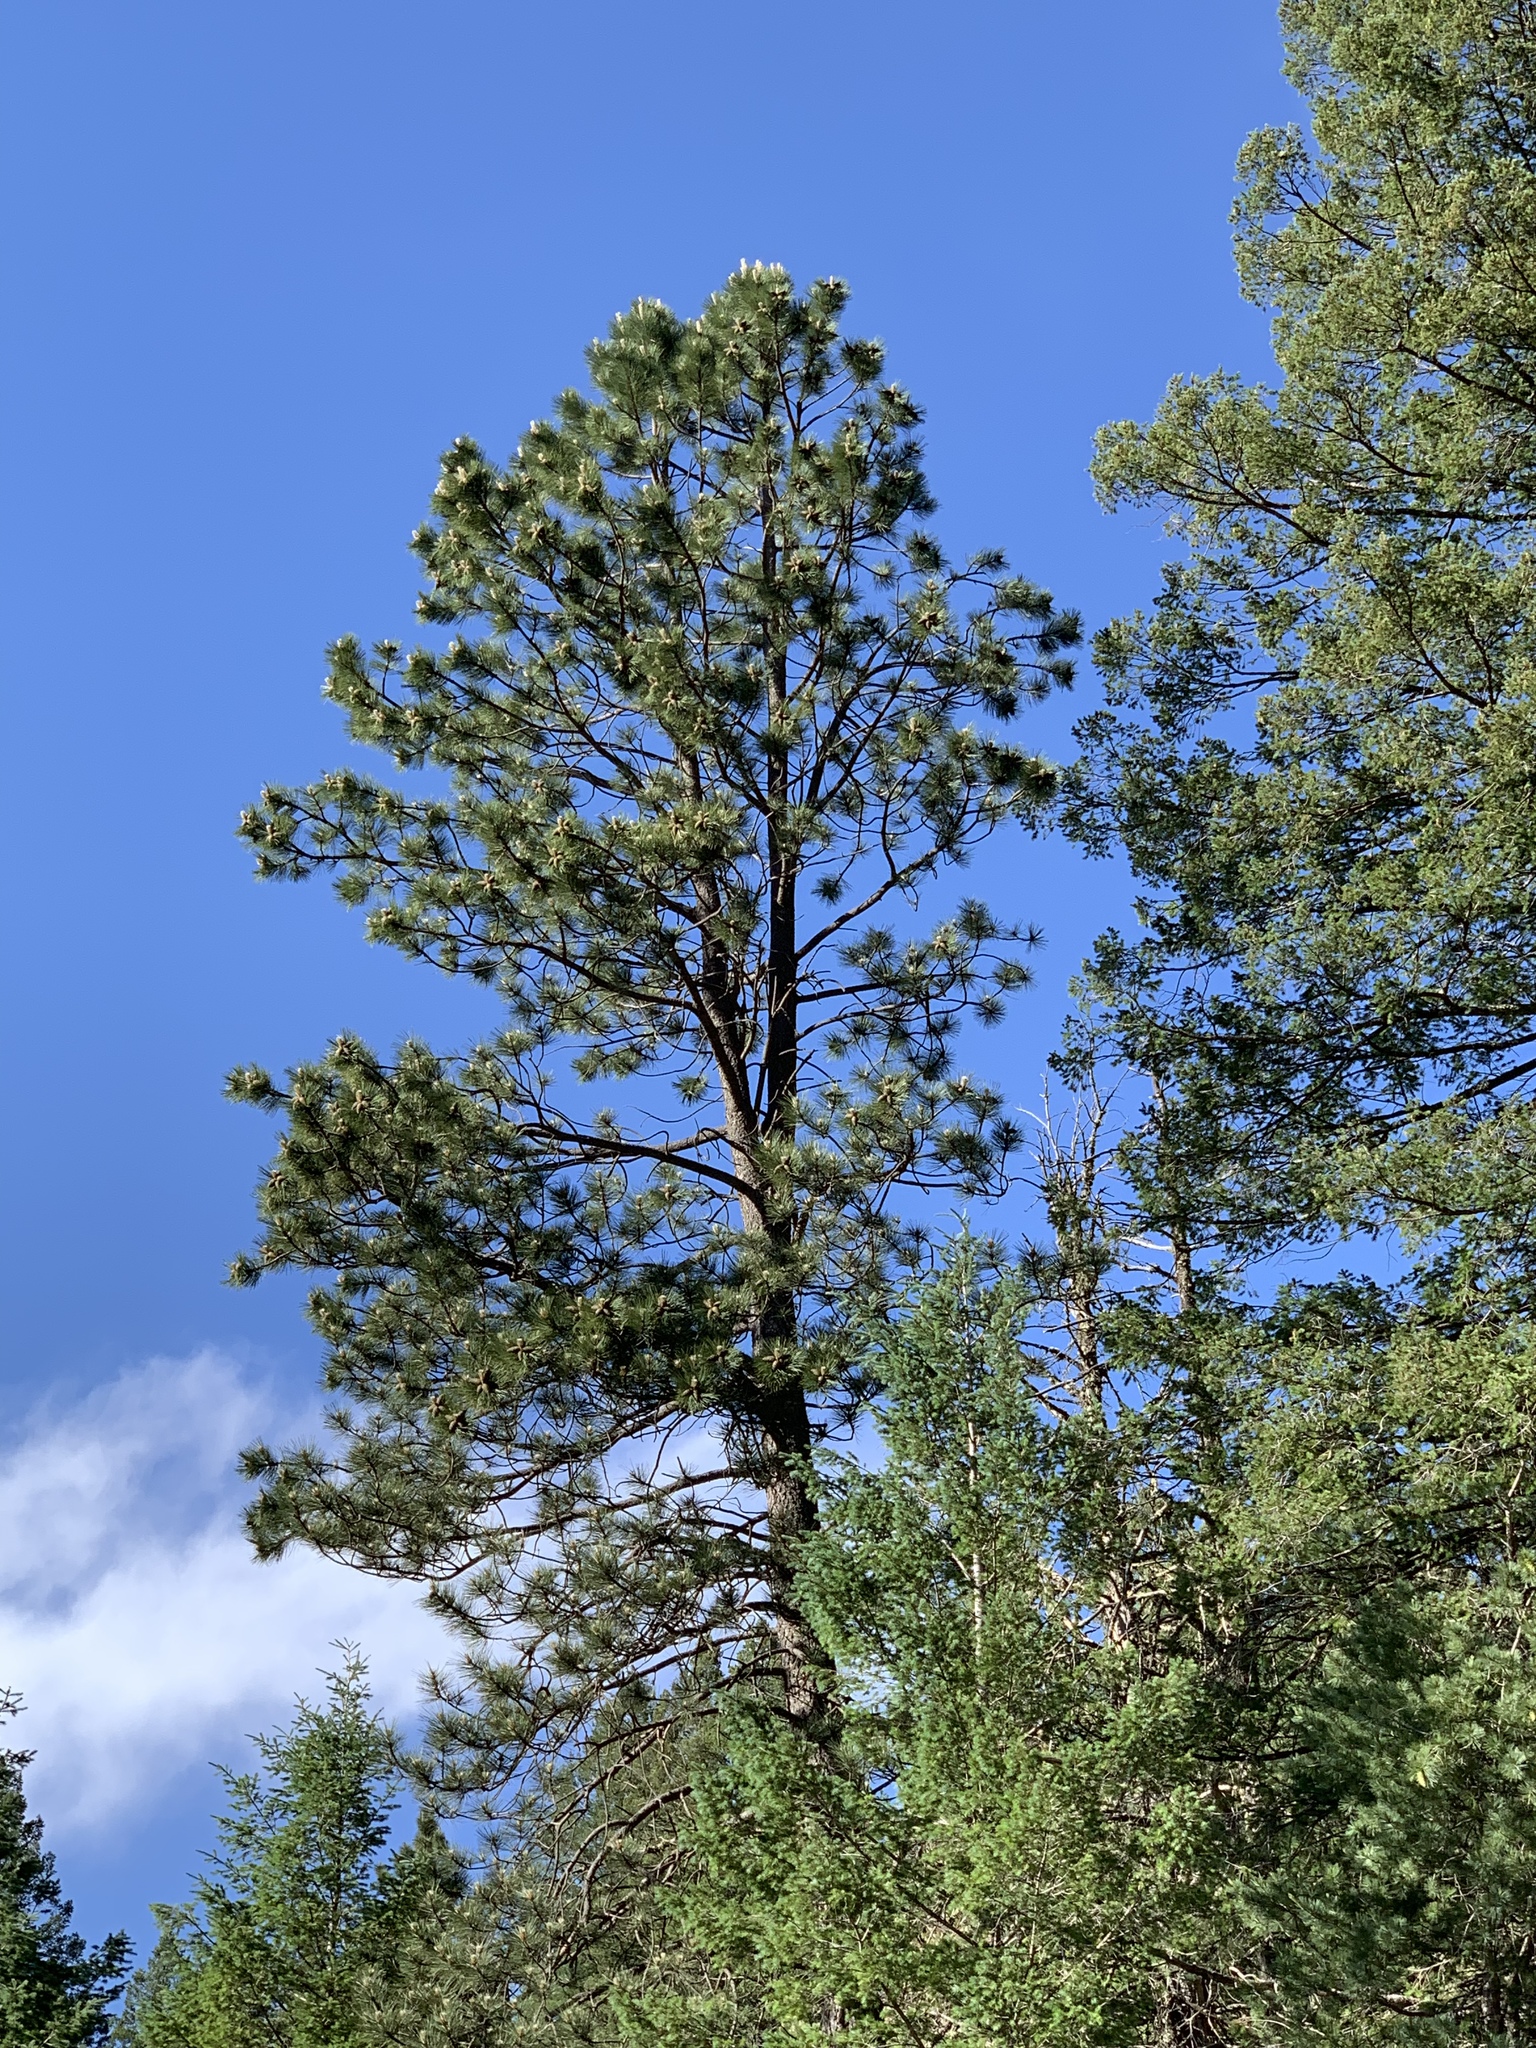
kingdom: Plantae
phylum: Tracheophyta
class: Pinopsida
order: Pinales
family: Pinaceae
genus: Pinus
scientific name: Pinus strobiformis
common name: Southwestern white pine
